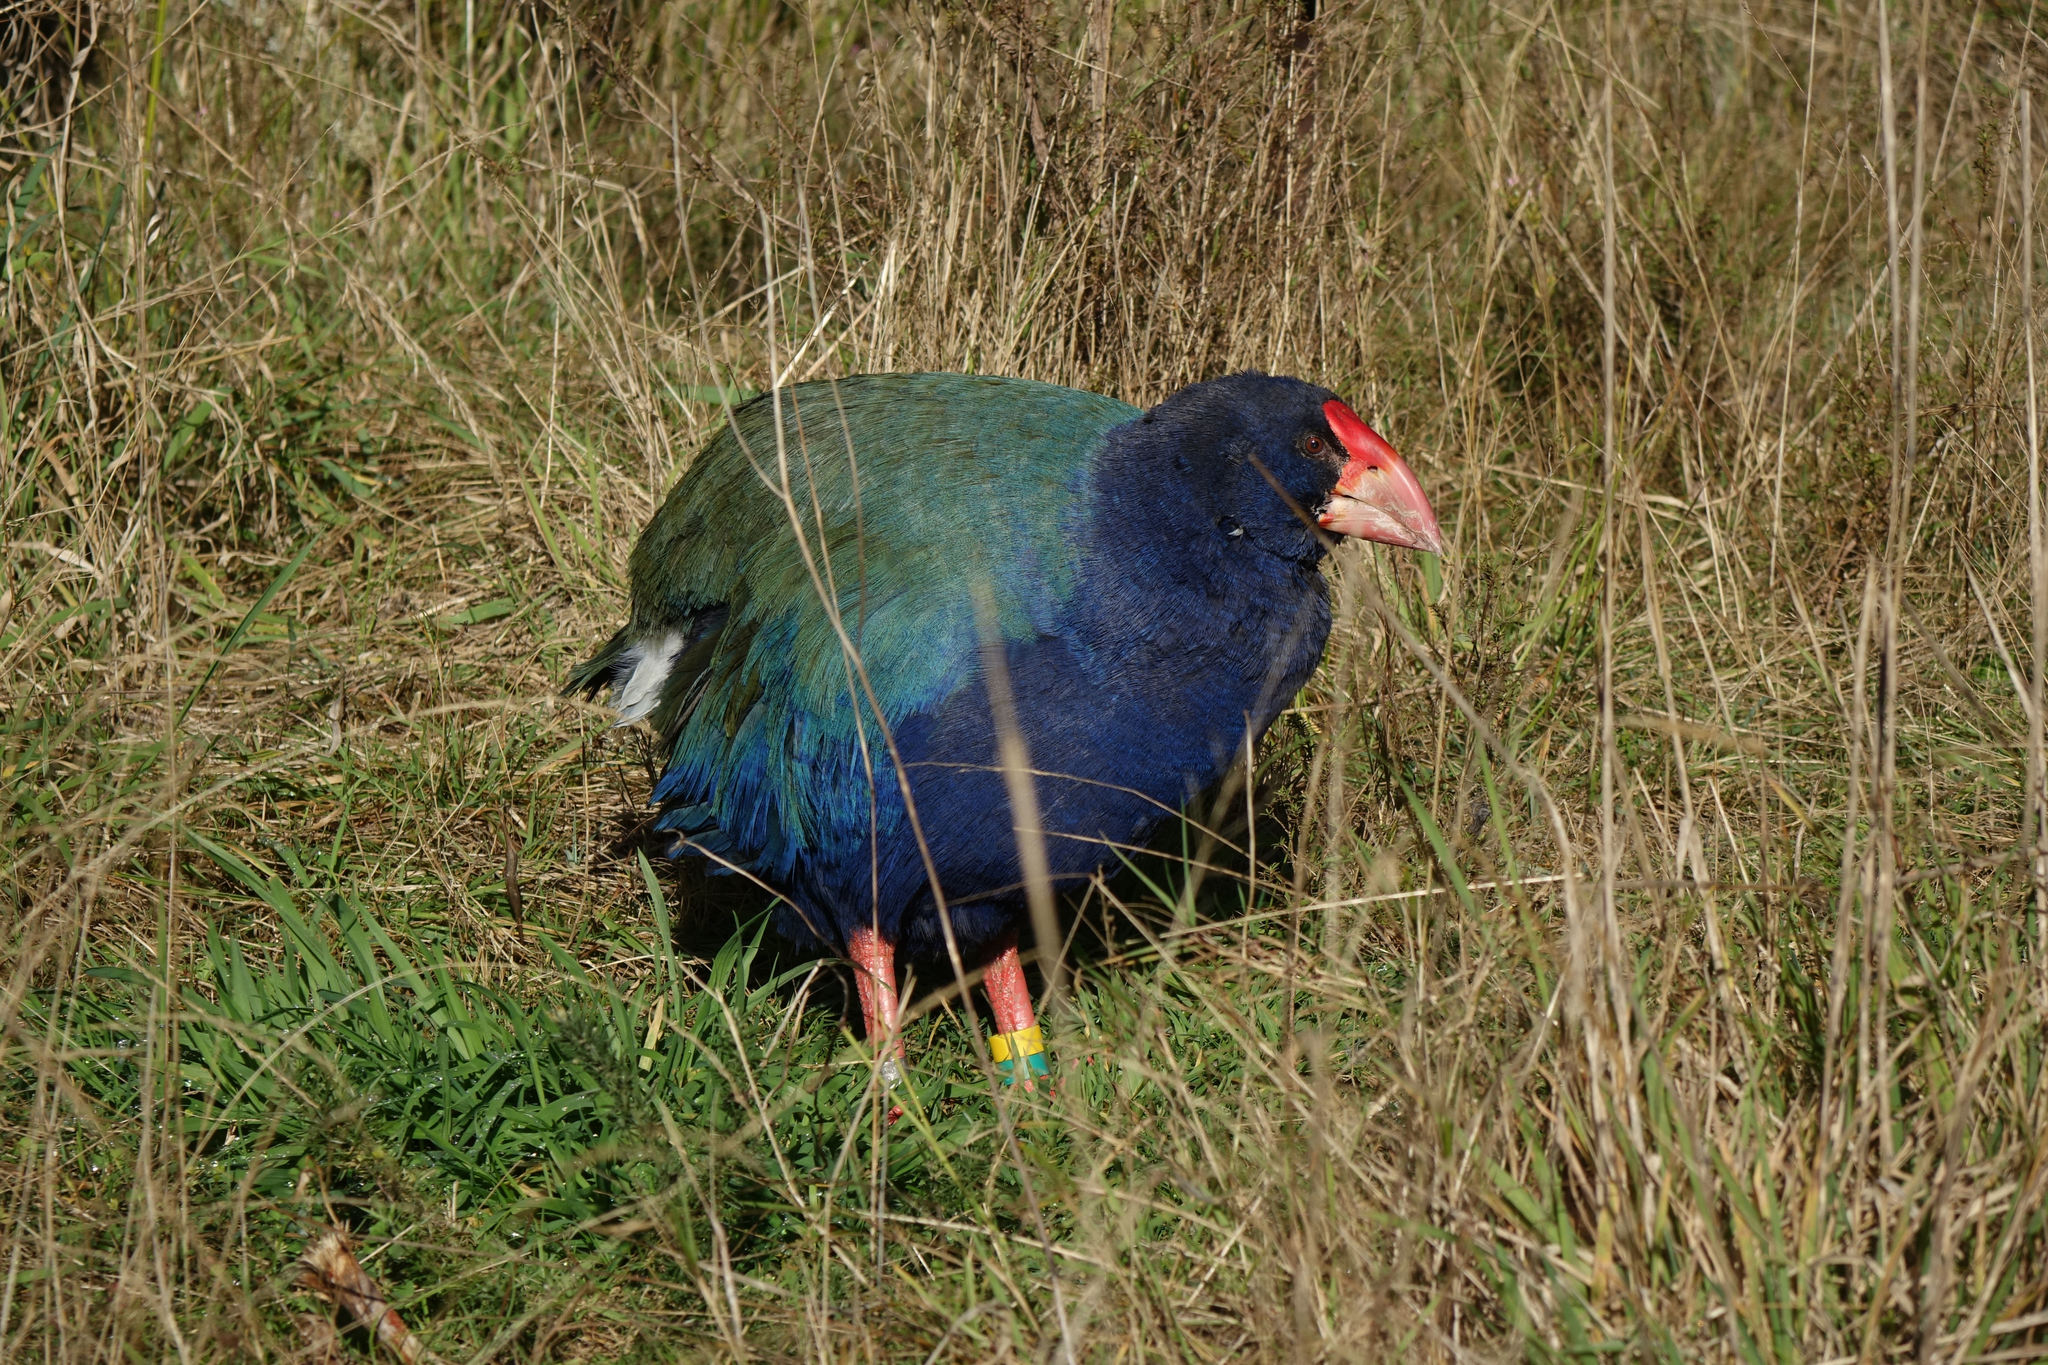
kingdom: Animalia
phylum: Chordata
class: Aves
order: Gruiformes
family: Rallidae
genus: Porphyrio
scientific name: Porphyrio hochstetteri
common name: South island takahe
